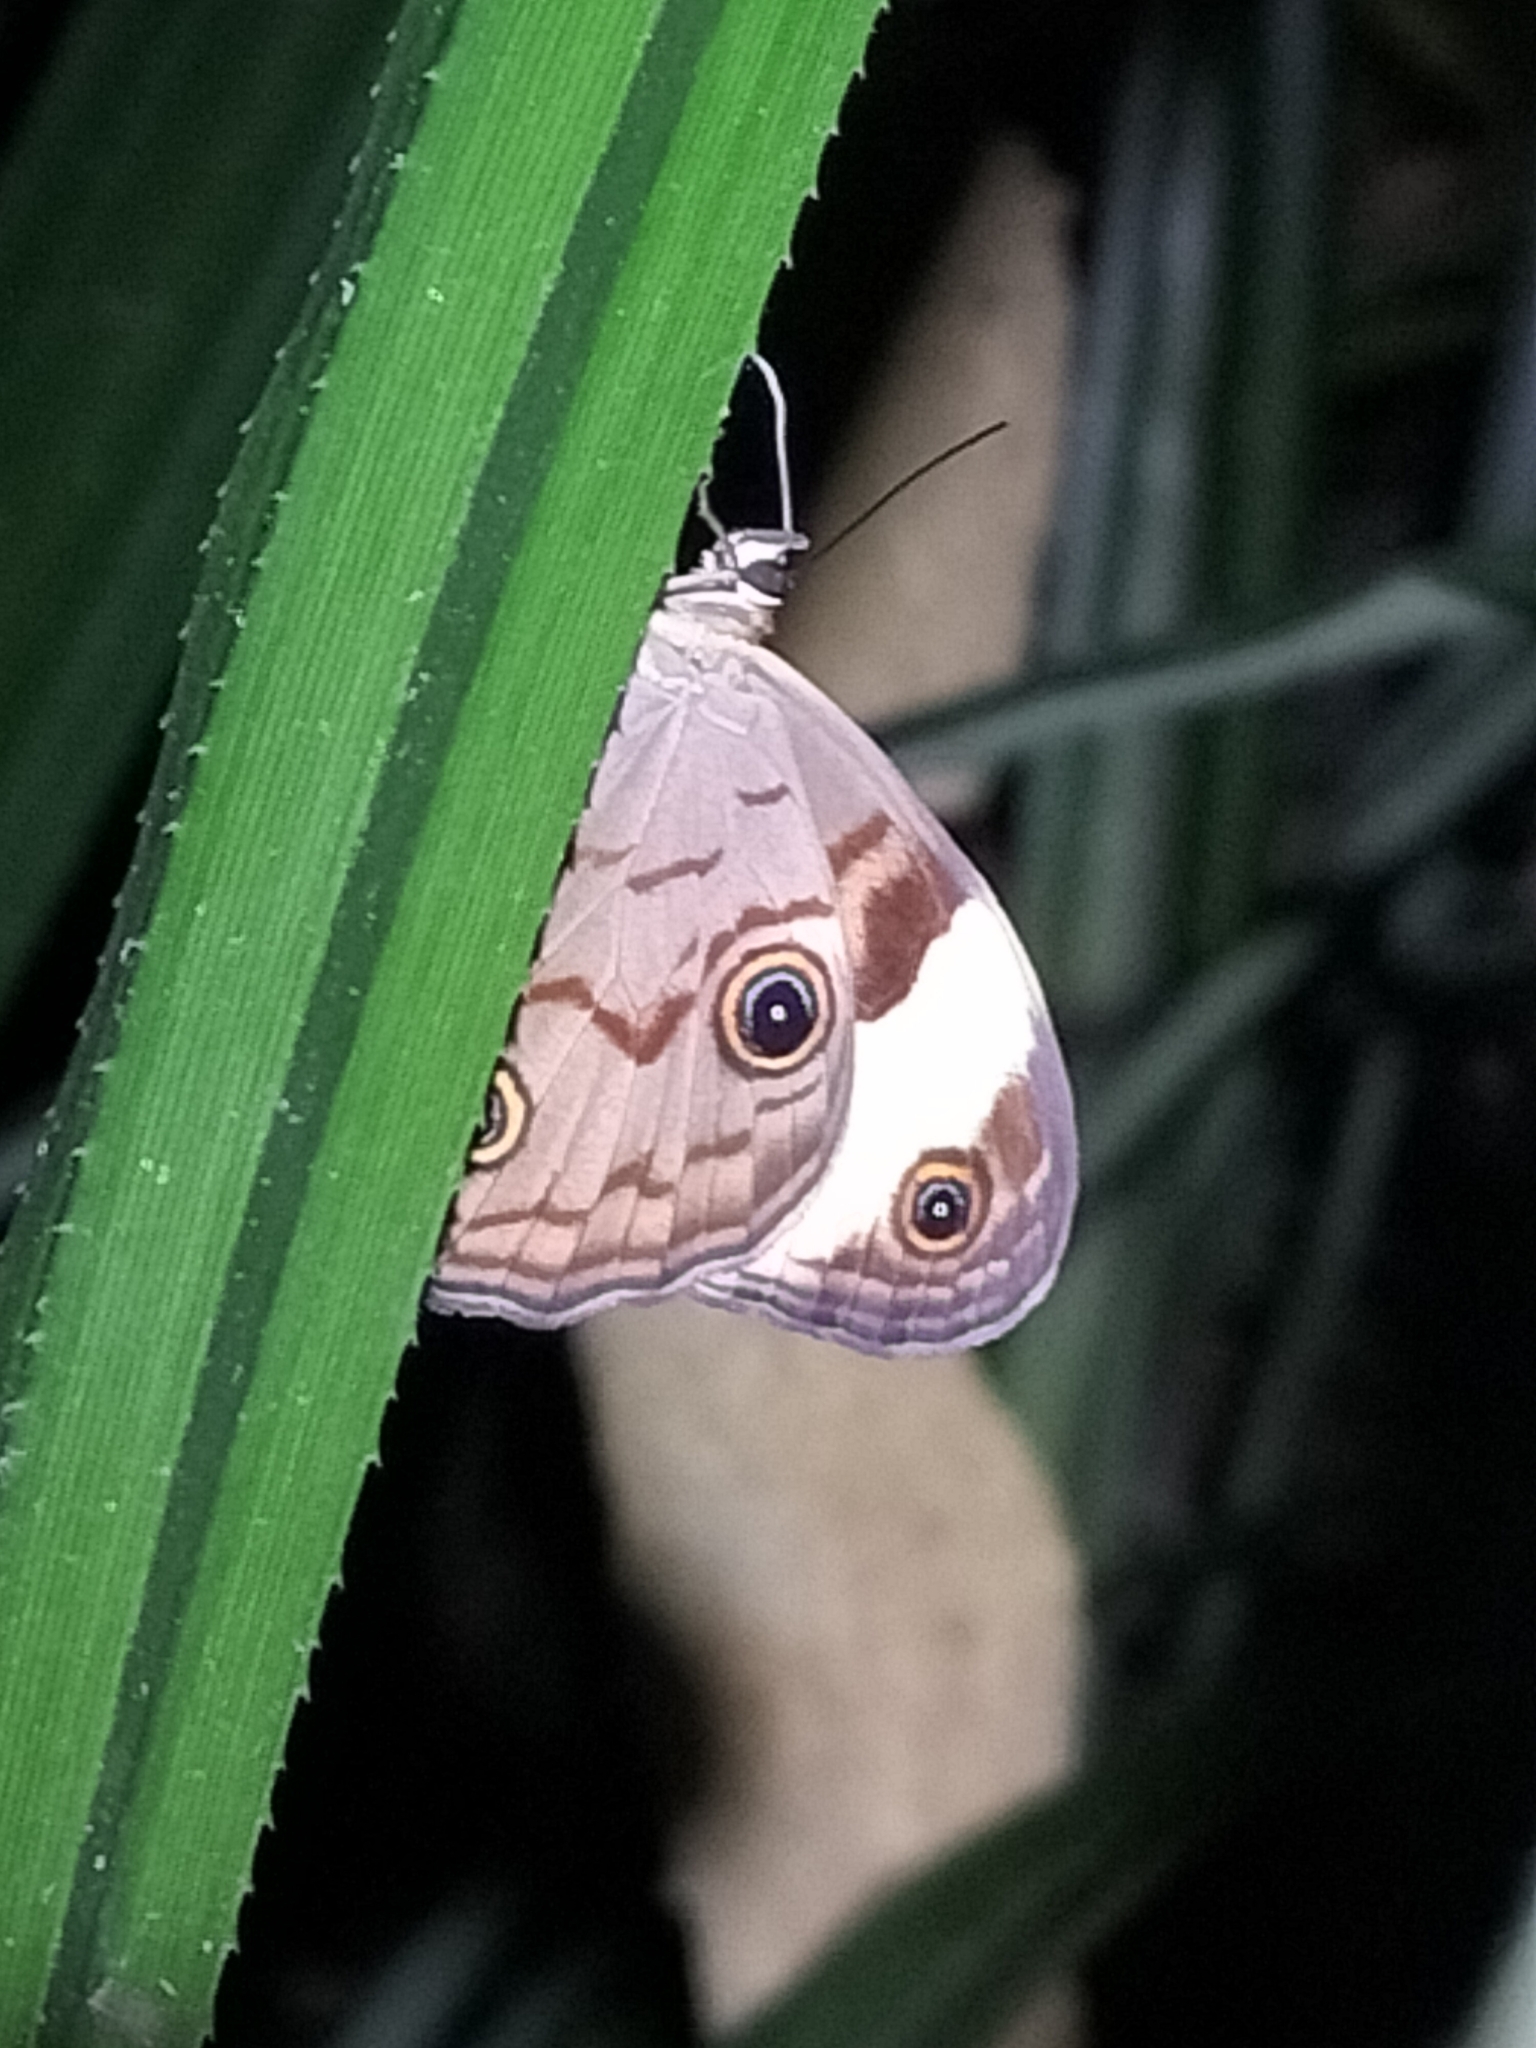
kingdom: Animalia
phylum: Arthropoda
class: Insecta
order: Lepidoptera
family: Nymphalidae
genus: Tisiphone
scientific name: Tisiphone helena
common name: Northern sword-grass brown
